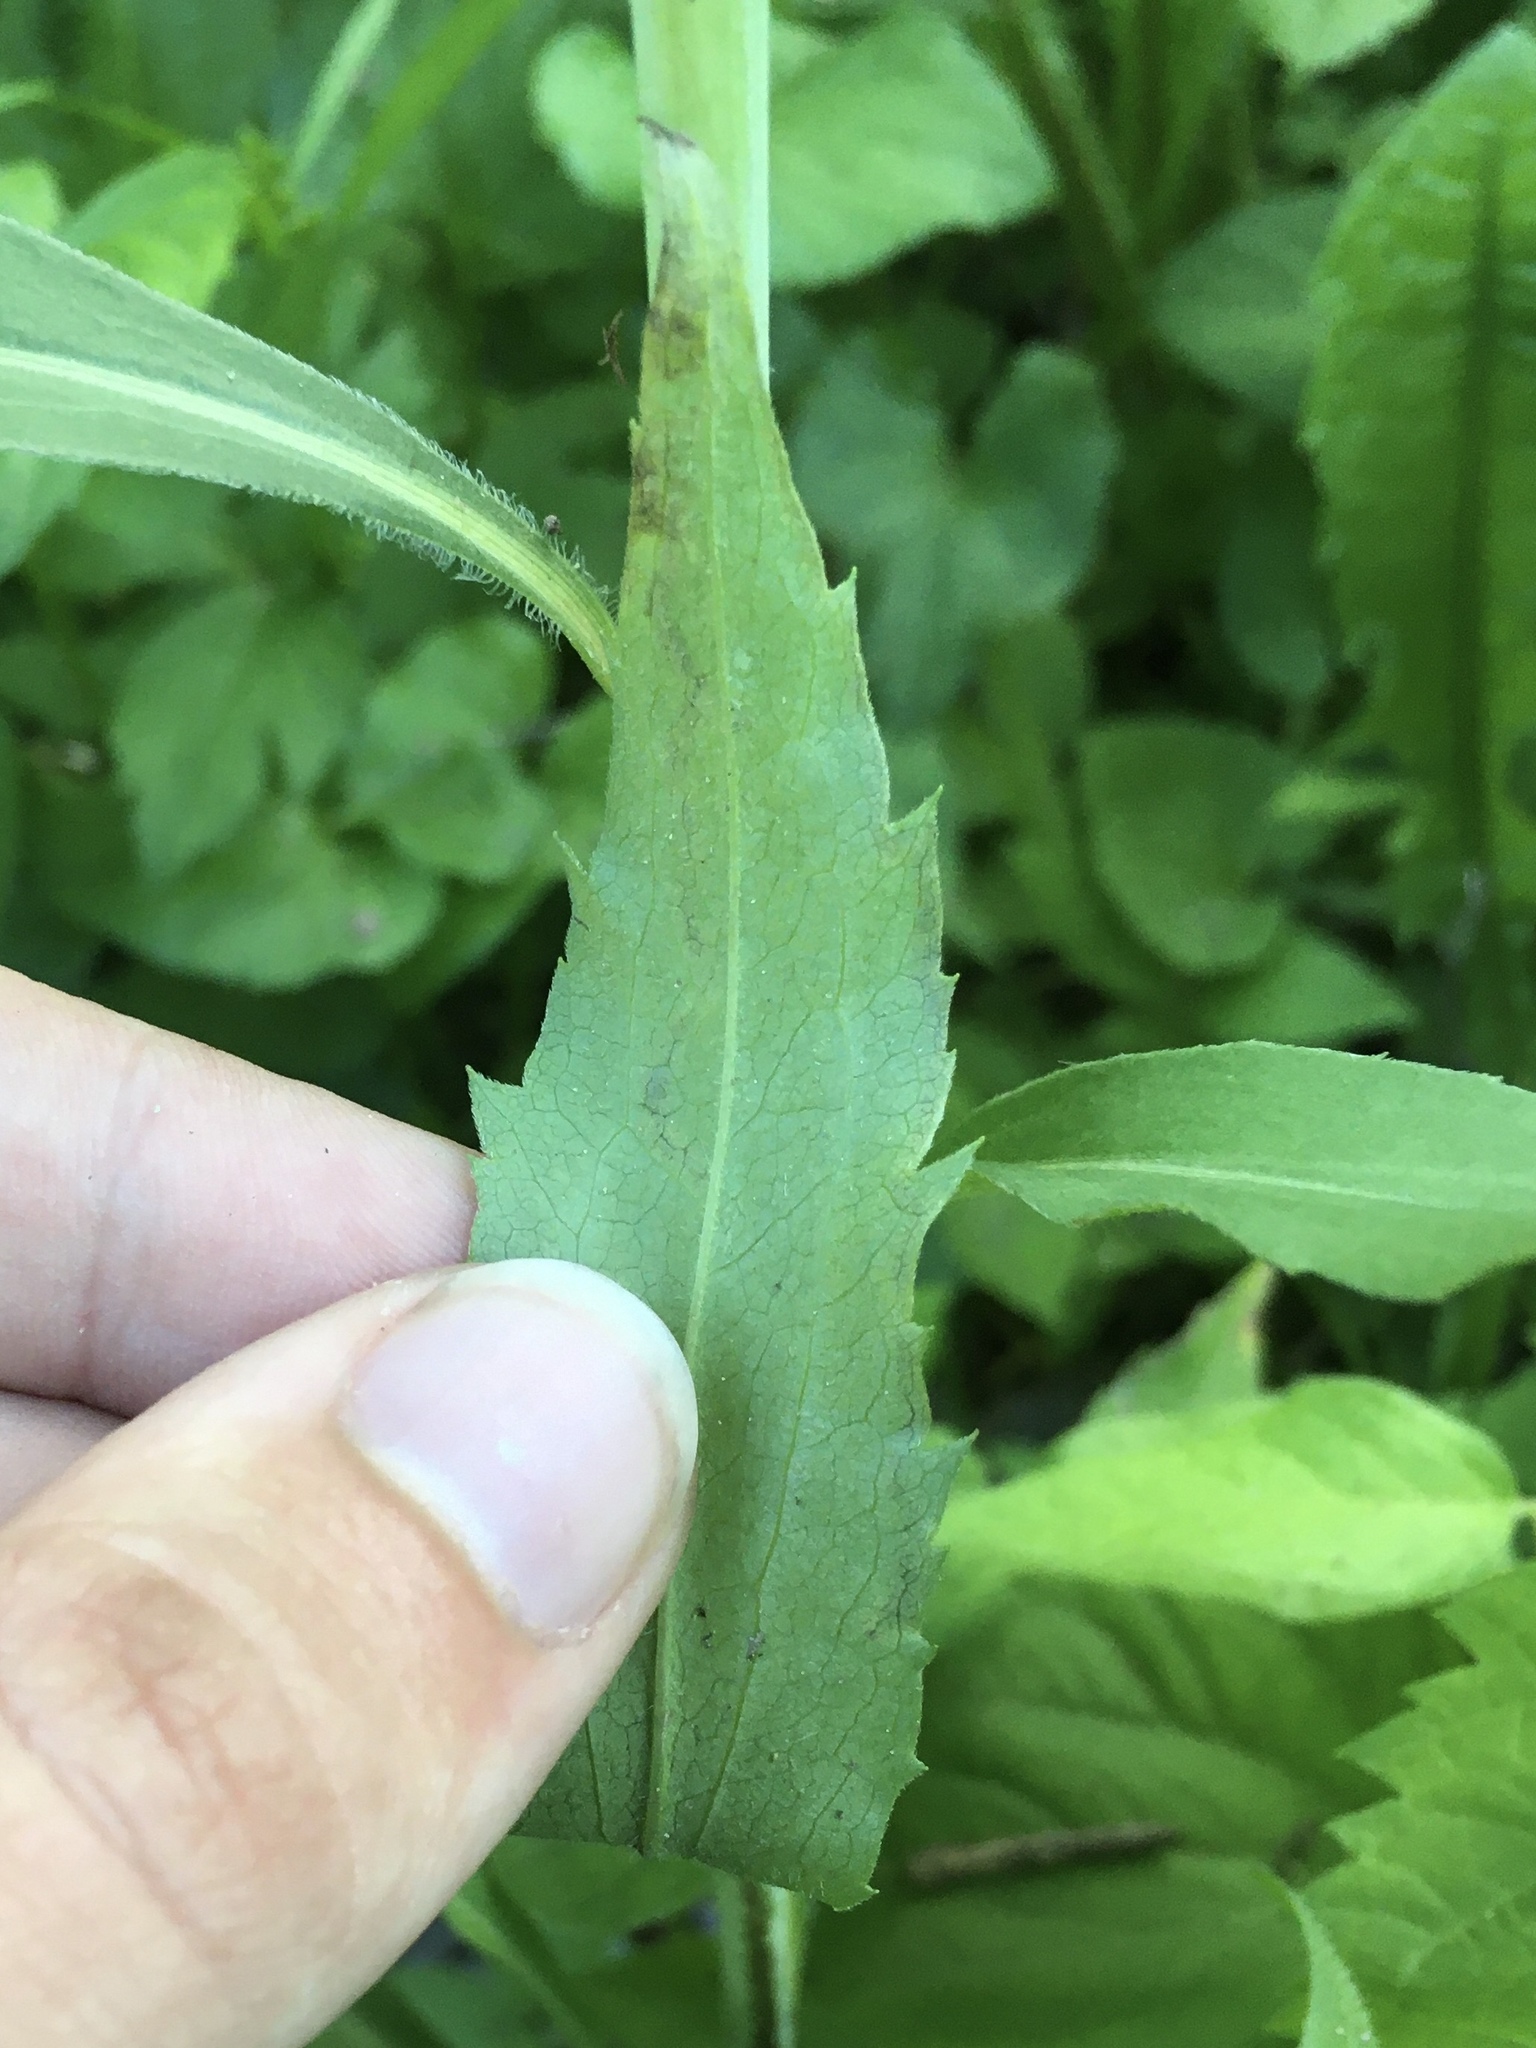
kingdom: Animalia
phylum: Arthropoda
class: Insecta
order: Diptera
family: Agromyzidae
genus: Liriomyza
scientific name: Liriomyza eupatorii
